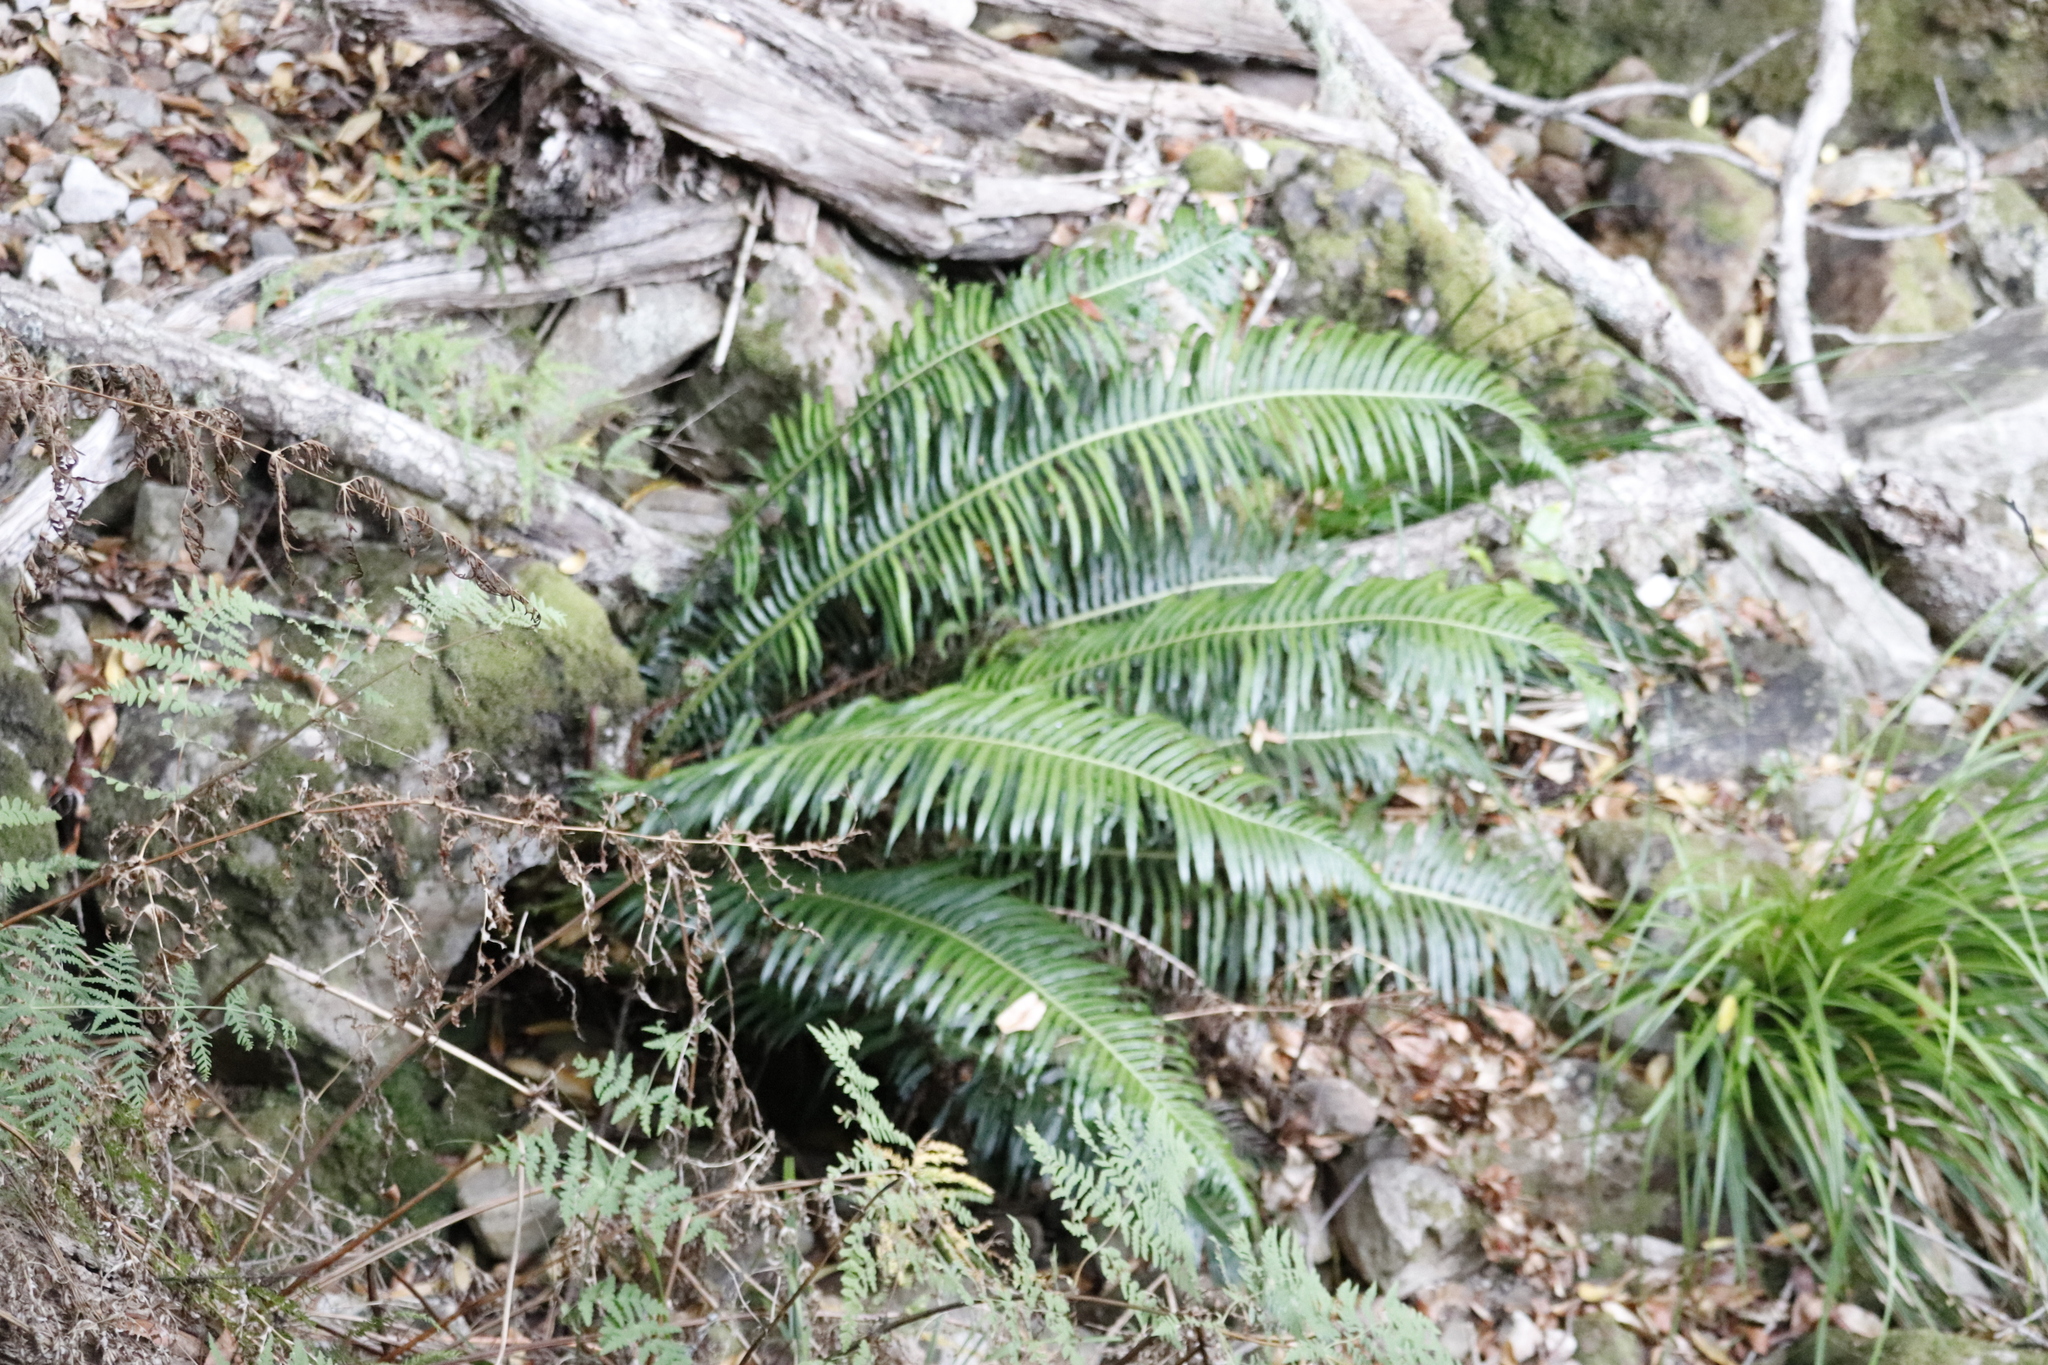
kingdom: Plantae
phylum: Tracheophyta
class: Polypodiopsida
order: Polypodiales
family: Blechnaceae
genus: Lomaridium
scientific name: Lomaridium attenuatum
